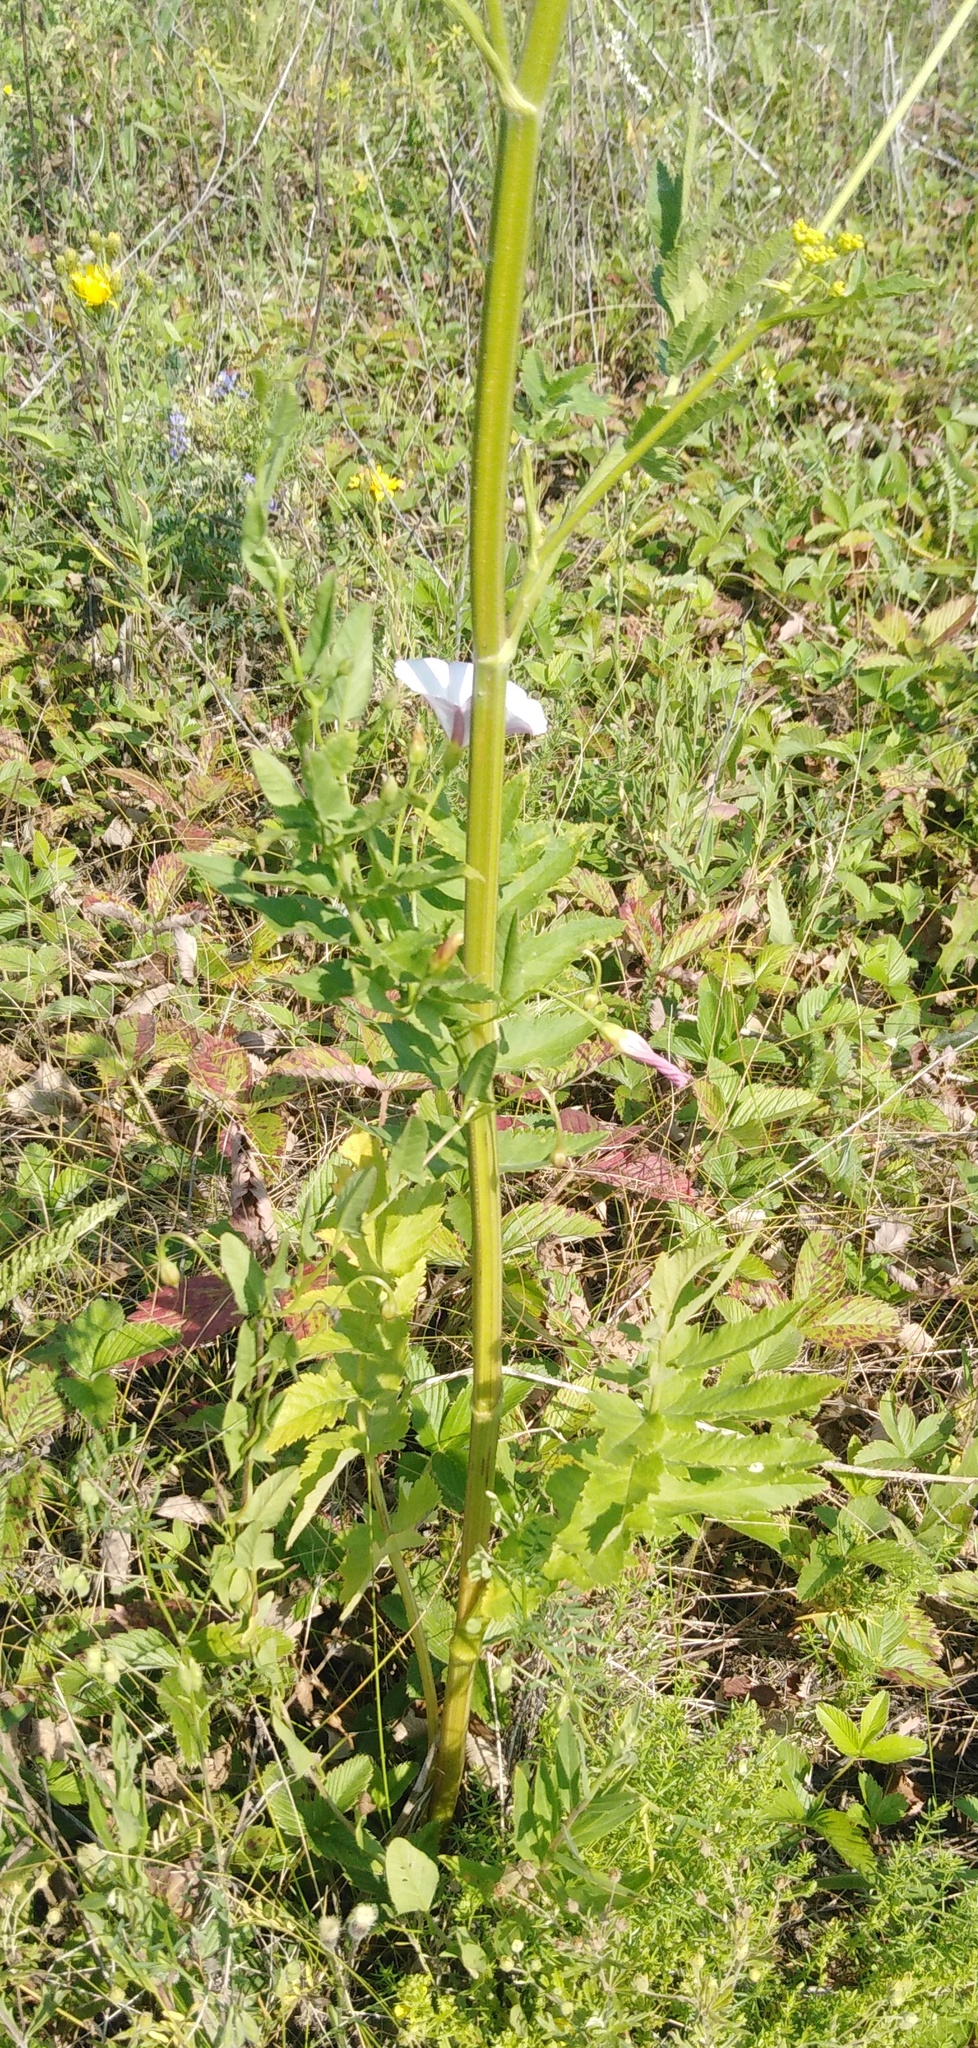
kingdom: Plantae
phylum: Tracheophyta
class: Magnoliopsida
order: Apiales
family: Apiaceae
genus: Pastinaca
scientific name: Pastinaca sativa
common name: Wild parsnip
